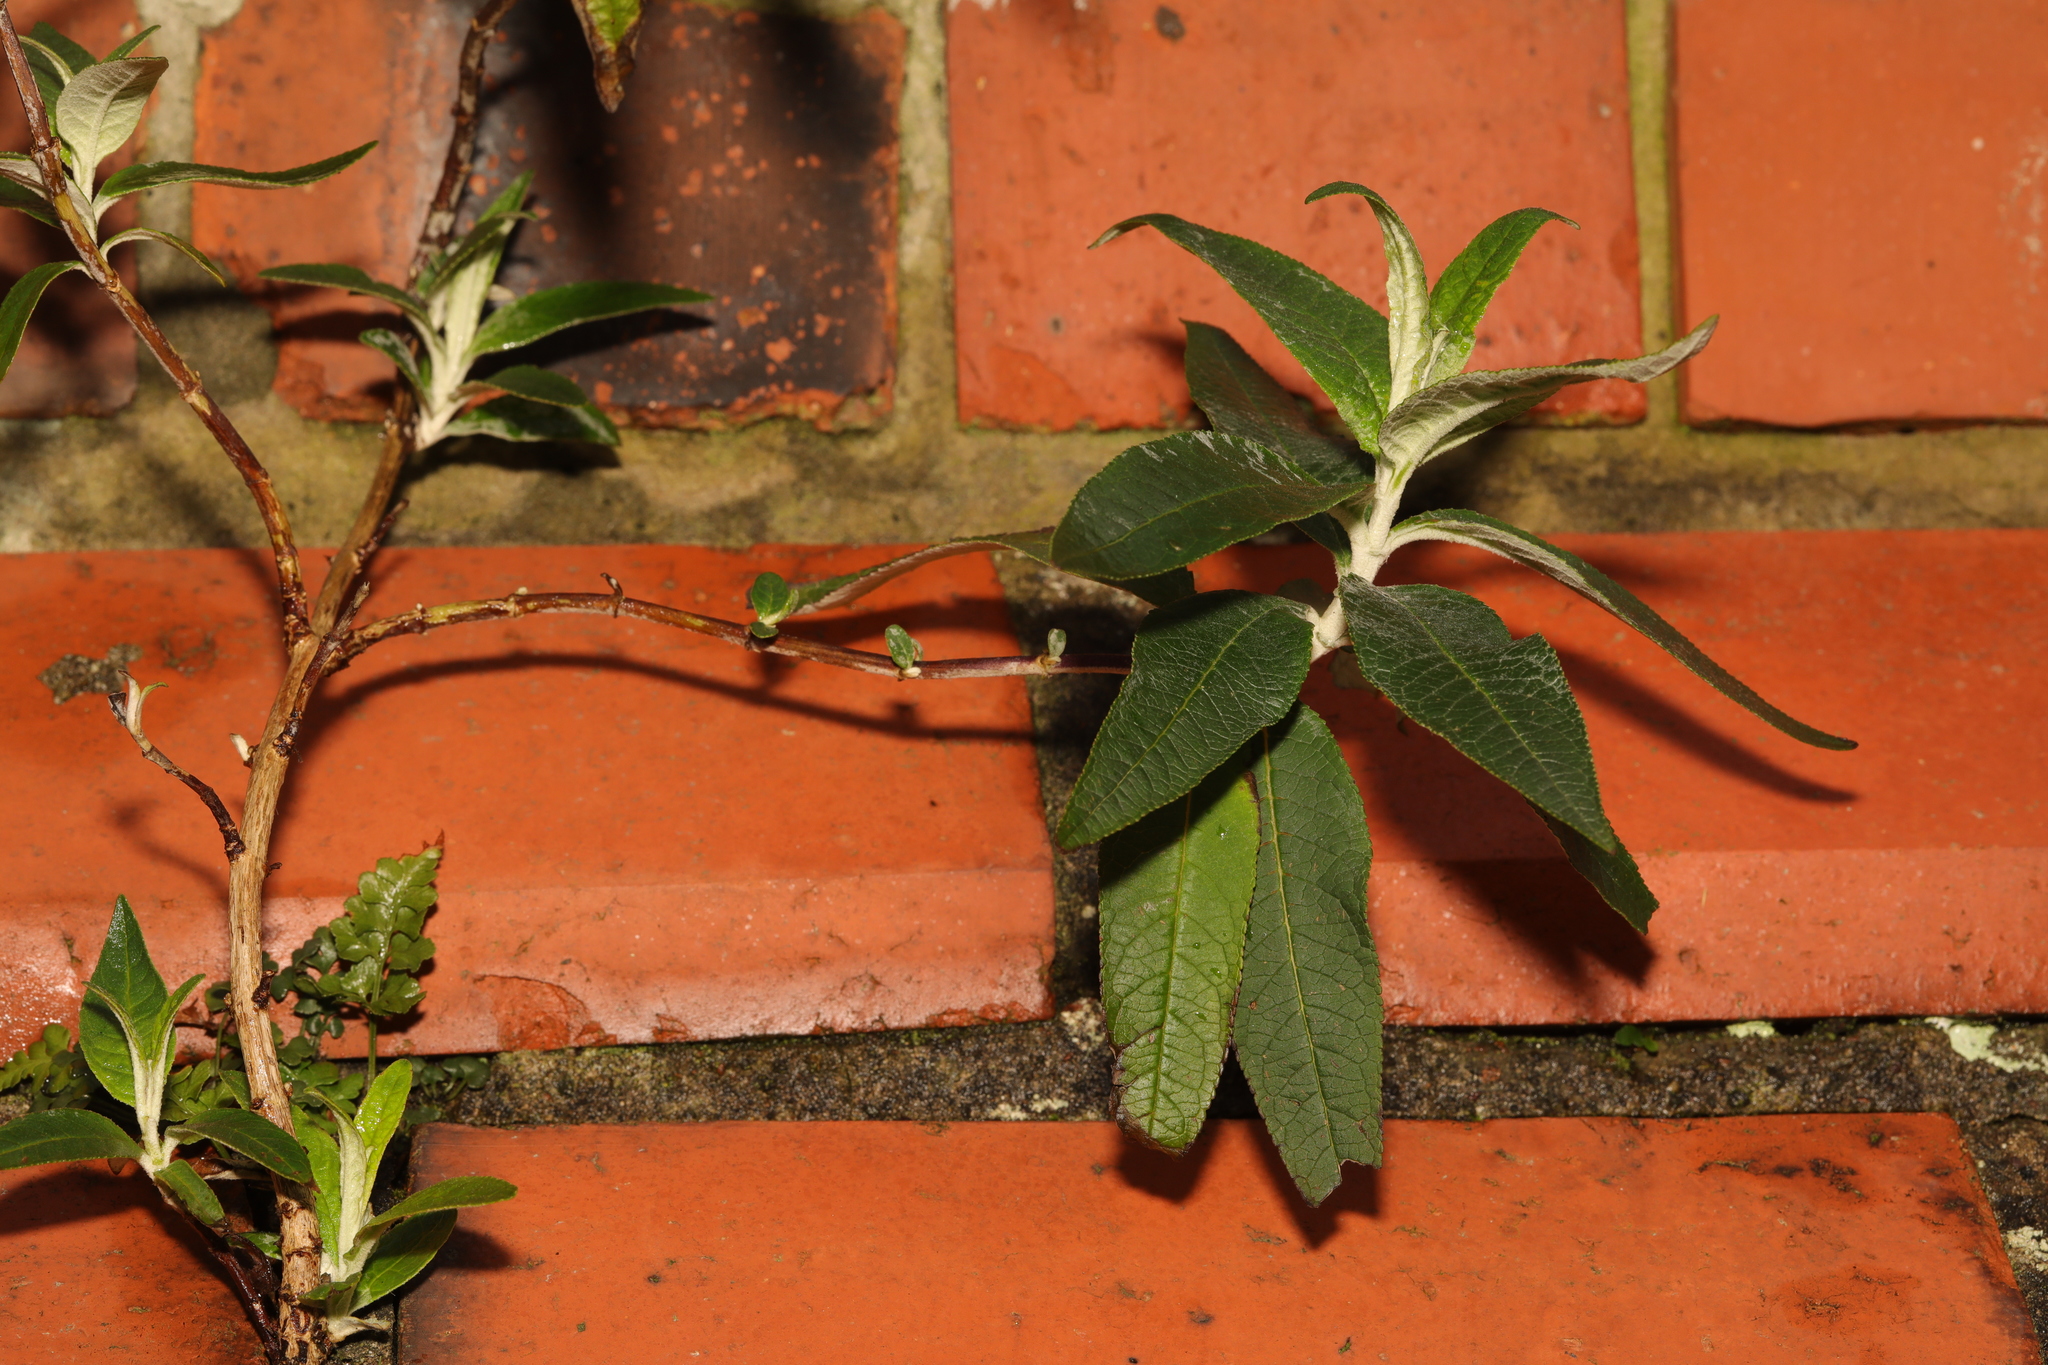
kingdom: Plantae
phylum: Tracheophyta
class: Magnoliopsida
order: Lamiales
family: Scrophulariaceae
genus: Buddleja
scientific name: Buddleja davidii
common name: Butterfly-bush
